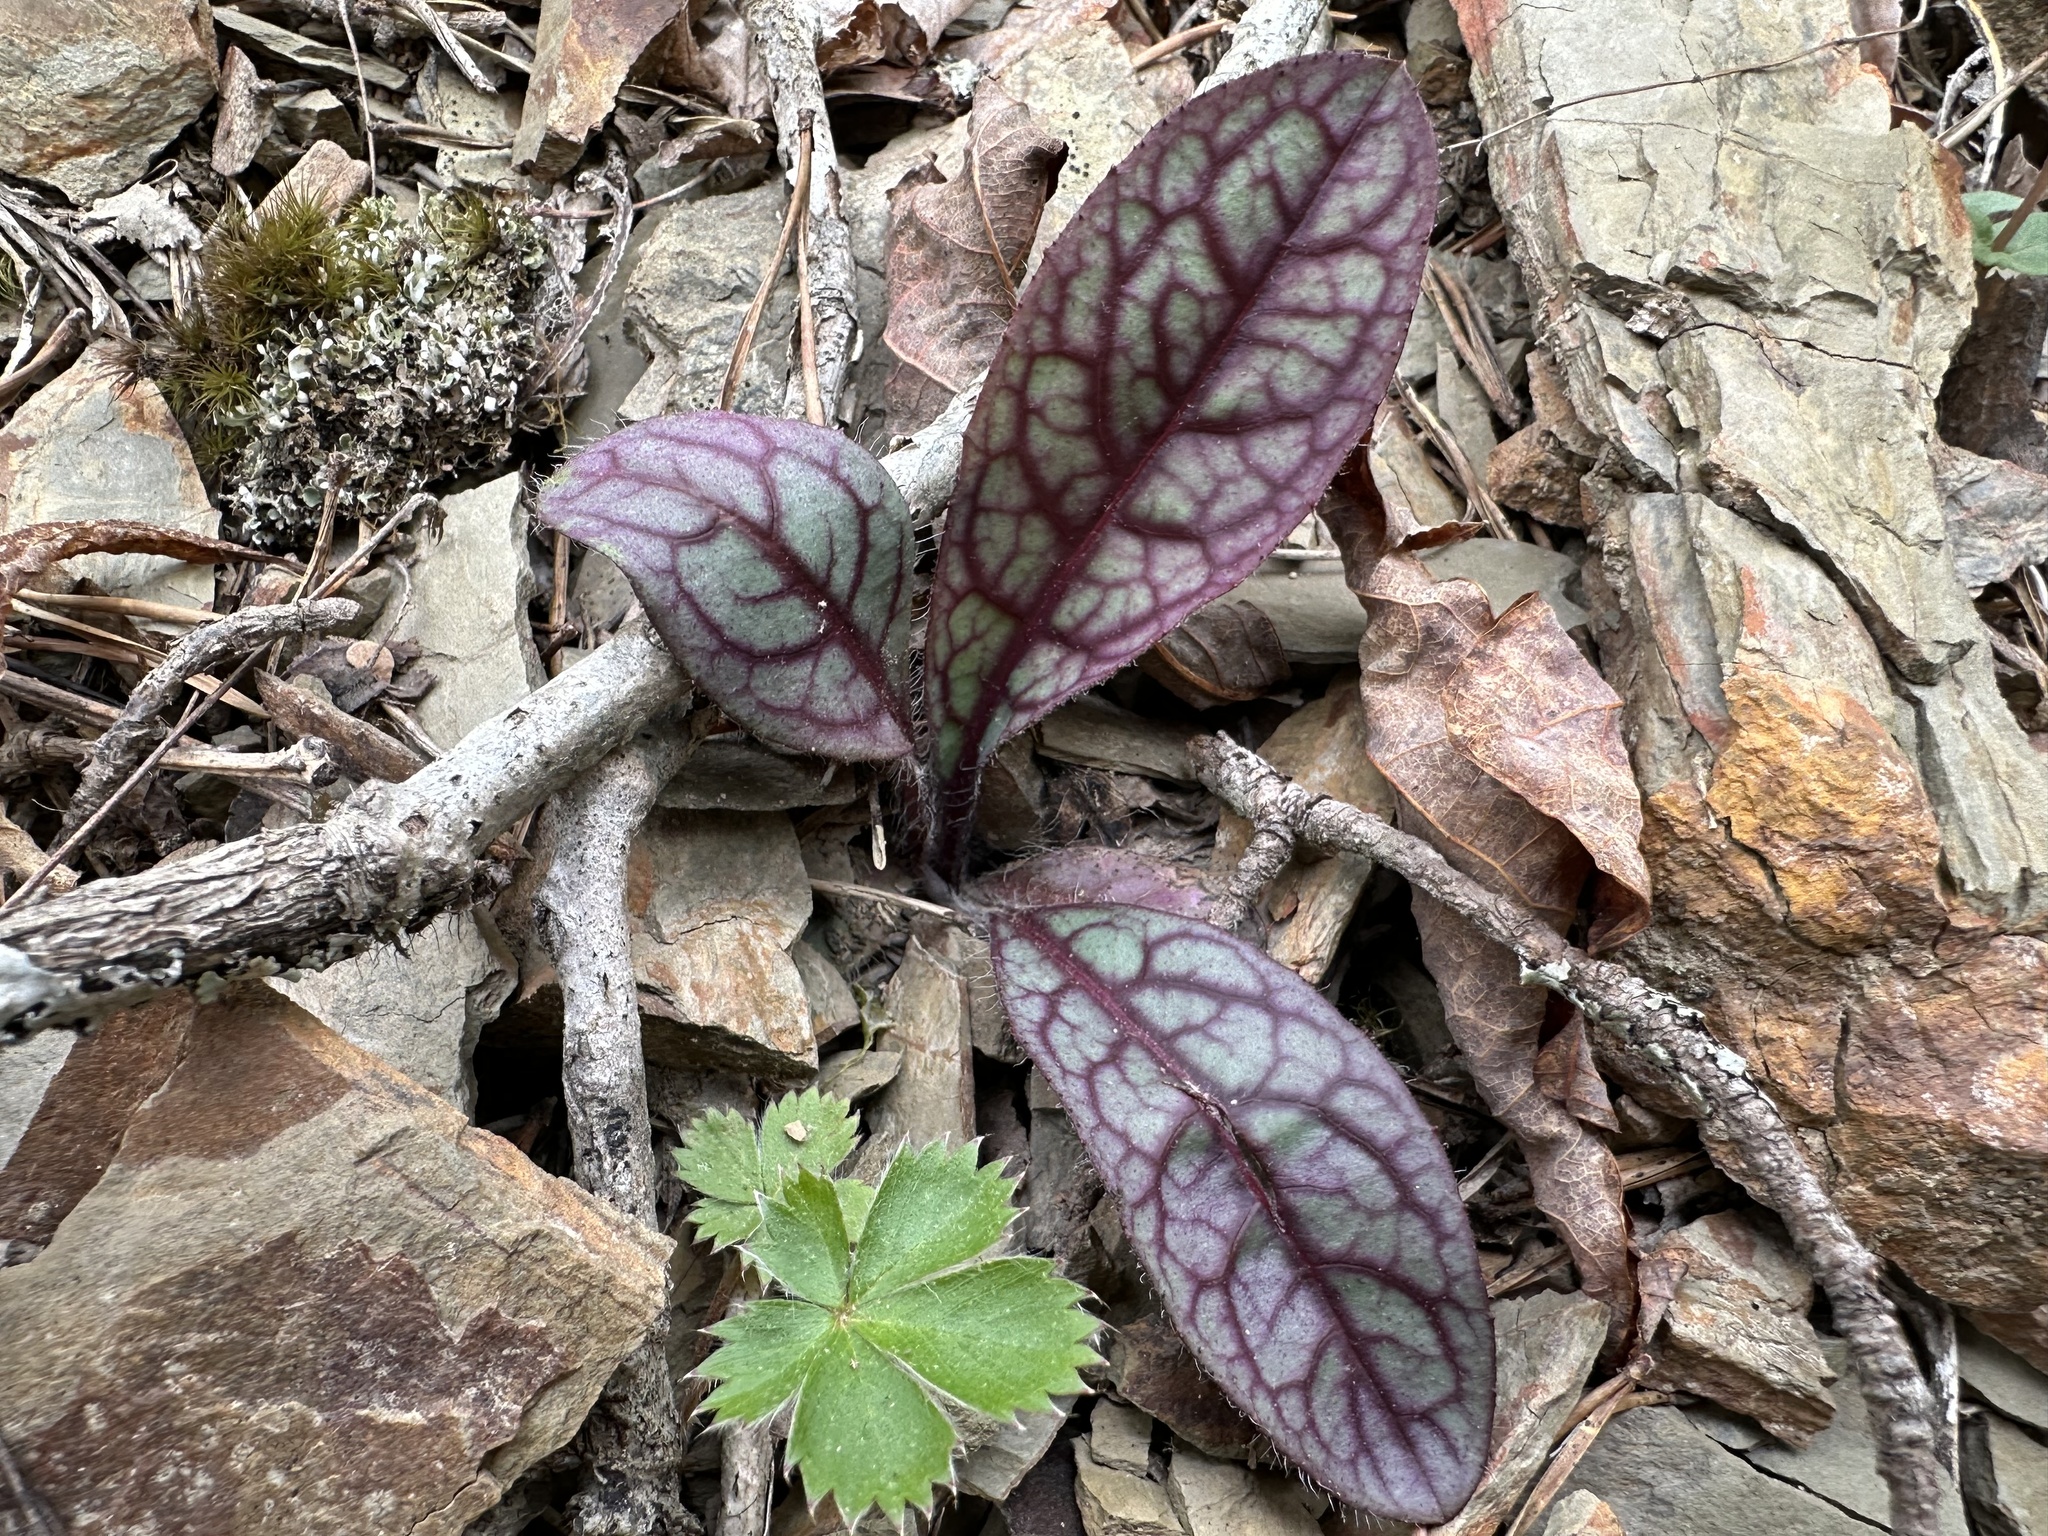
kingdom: Plantae
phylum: Tracheophyta
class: Magnoliopsida
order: Asterales
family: Asteraceae
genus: Hieracium
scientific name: Hieracium venosum
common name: Rattlesnake hawkweed
